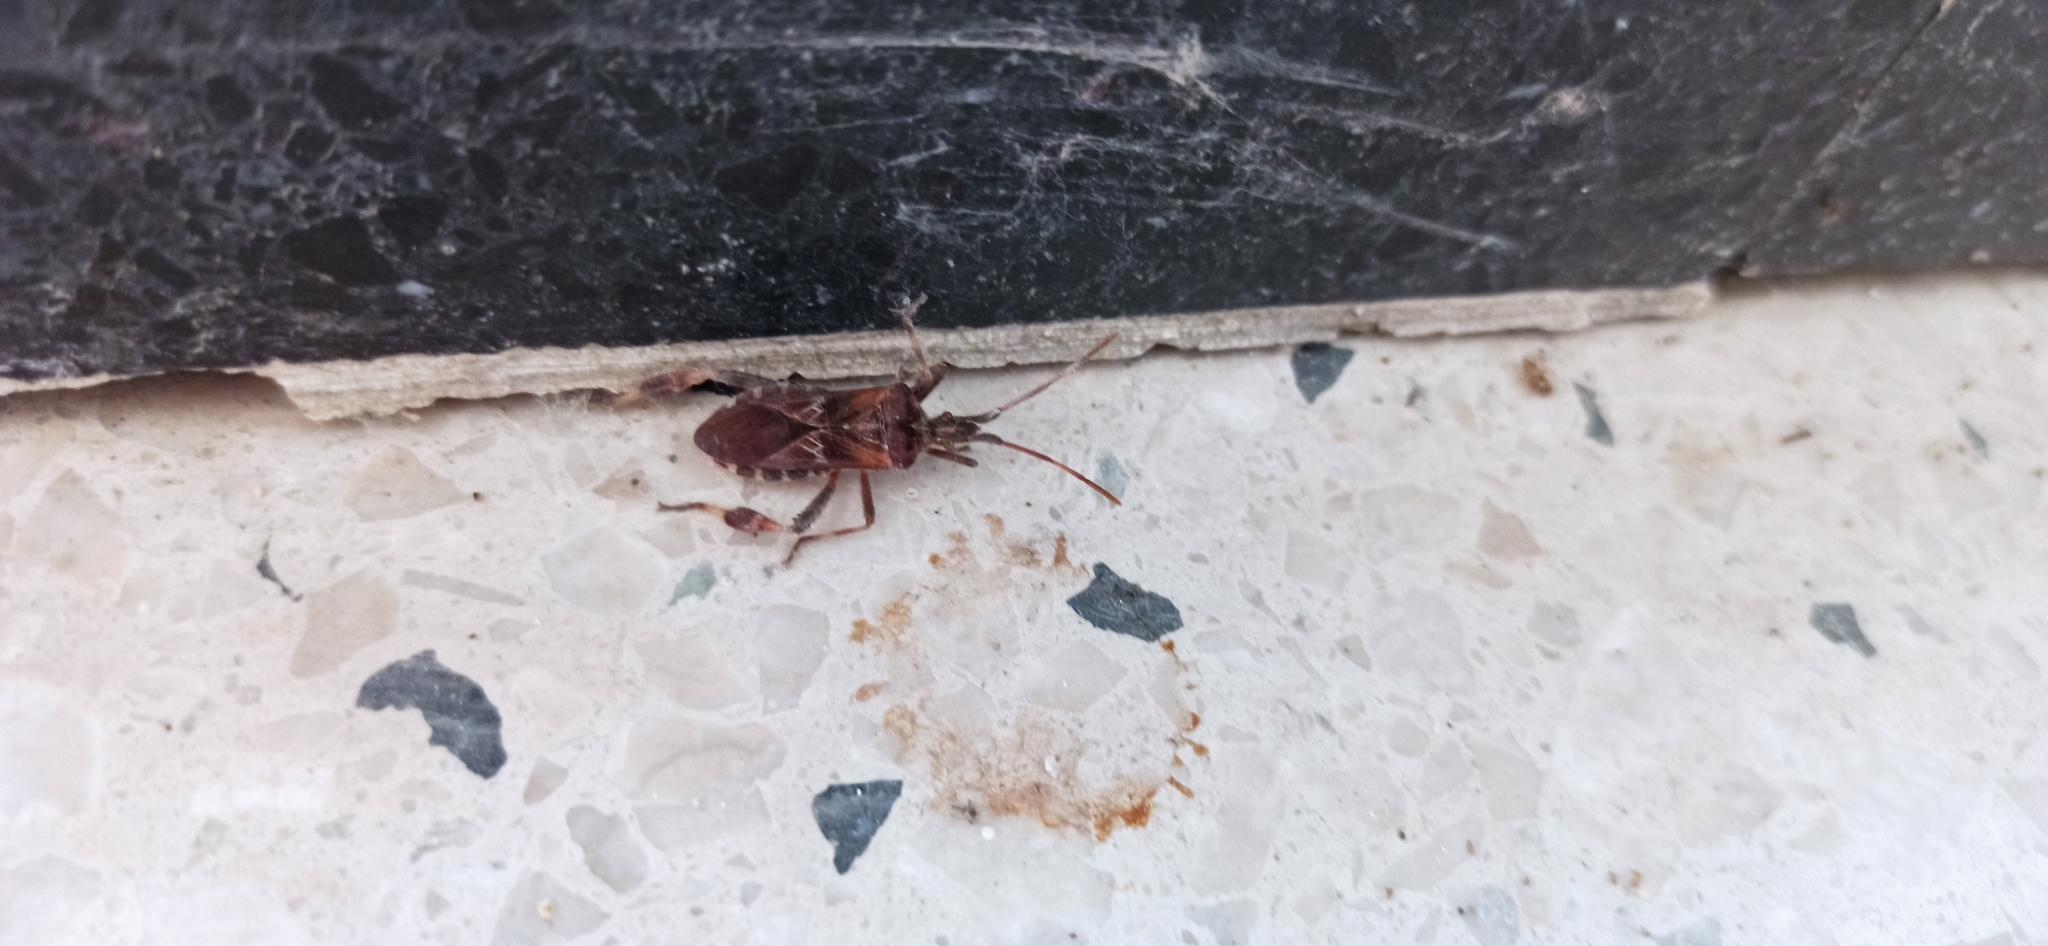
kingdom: Animalia
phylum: Arthropoda
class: Insecta
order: Hemiptera
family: Coreidae
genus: Leptoglossus
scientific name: Leptoglossus occidentalis
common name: Western conifer-seed bug
